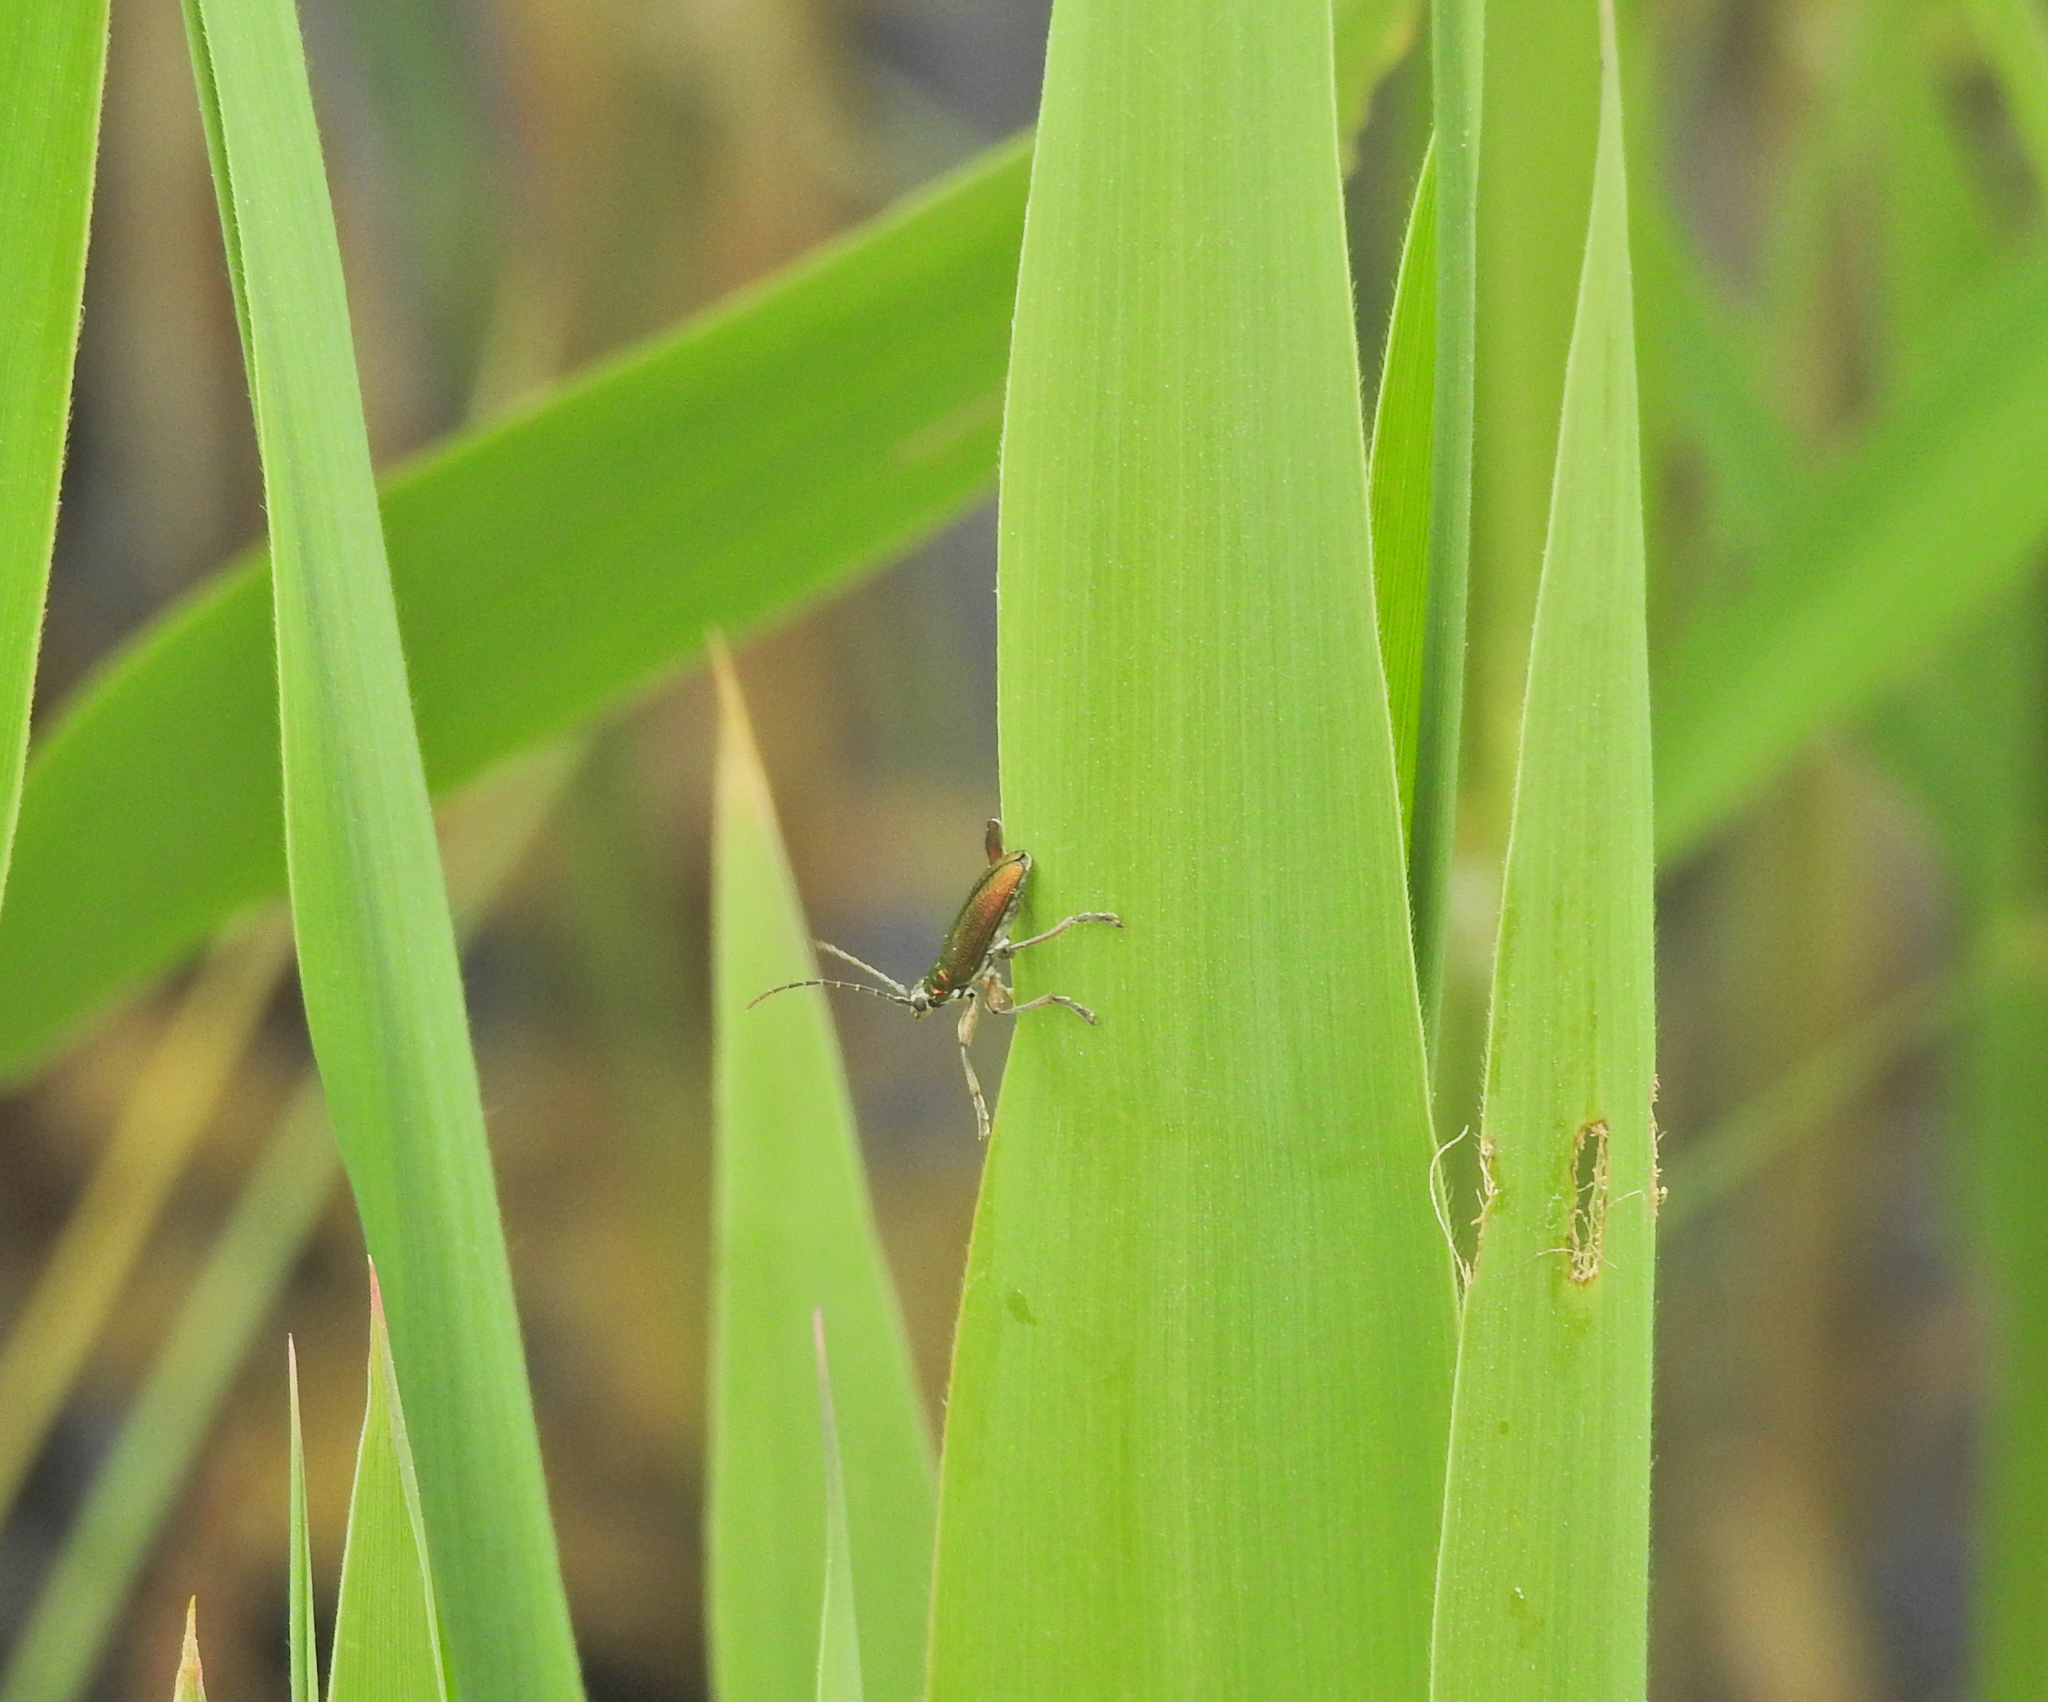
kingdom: Animalia
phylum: Arthropoda
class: Insecta
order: Coleoptera
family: Chrysomelidae
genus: Donacia
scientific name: Donacia clavipes
